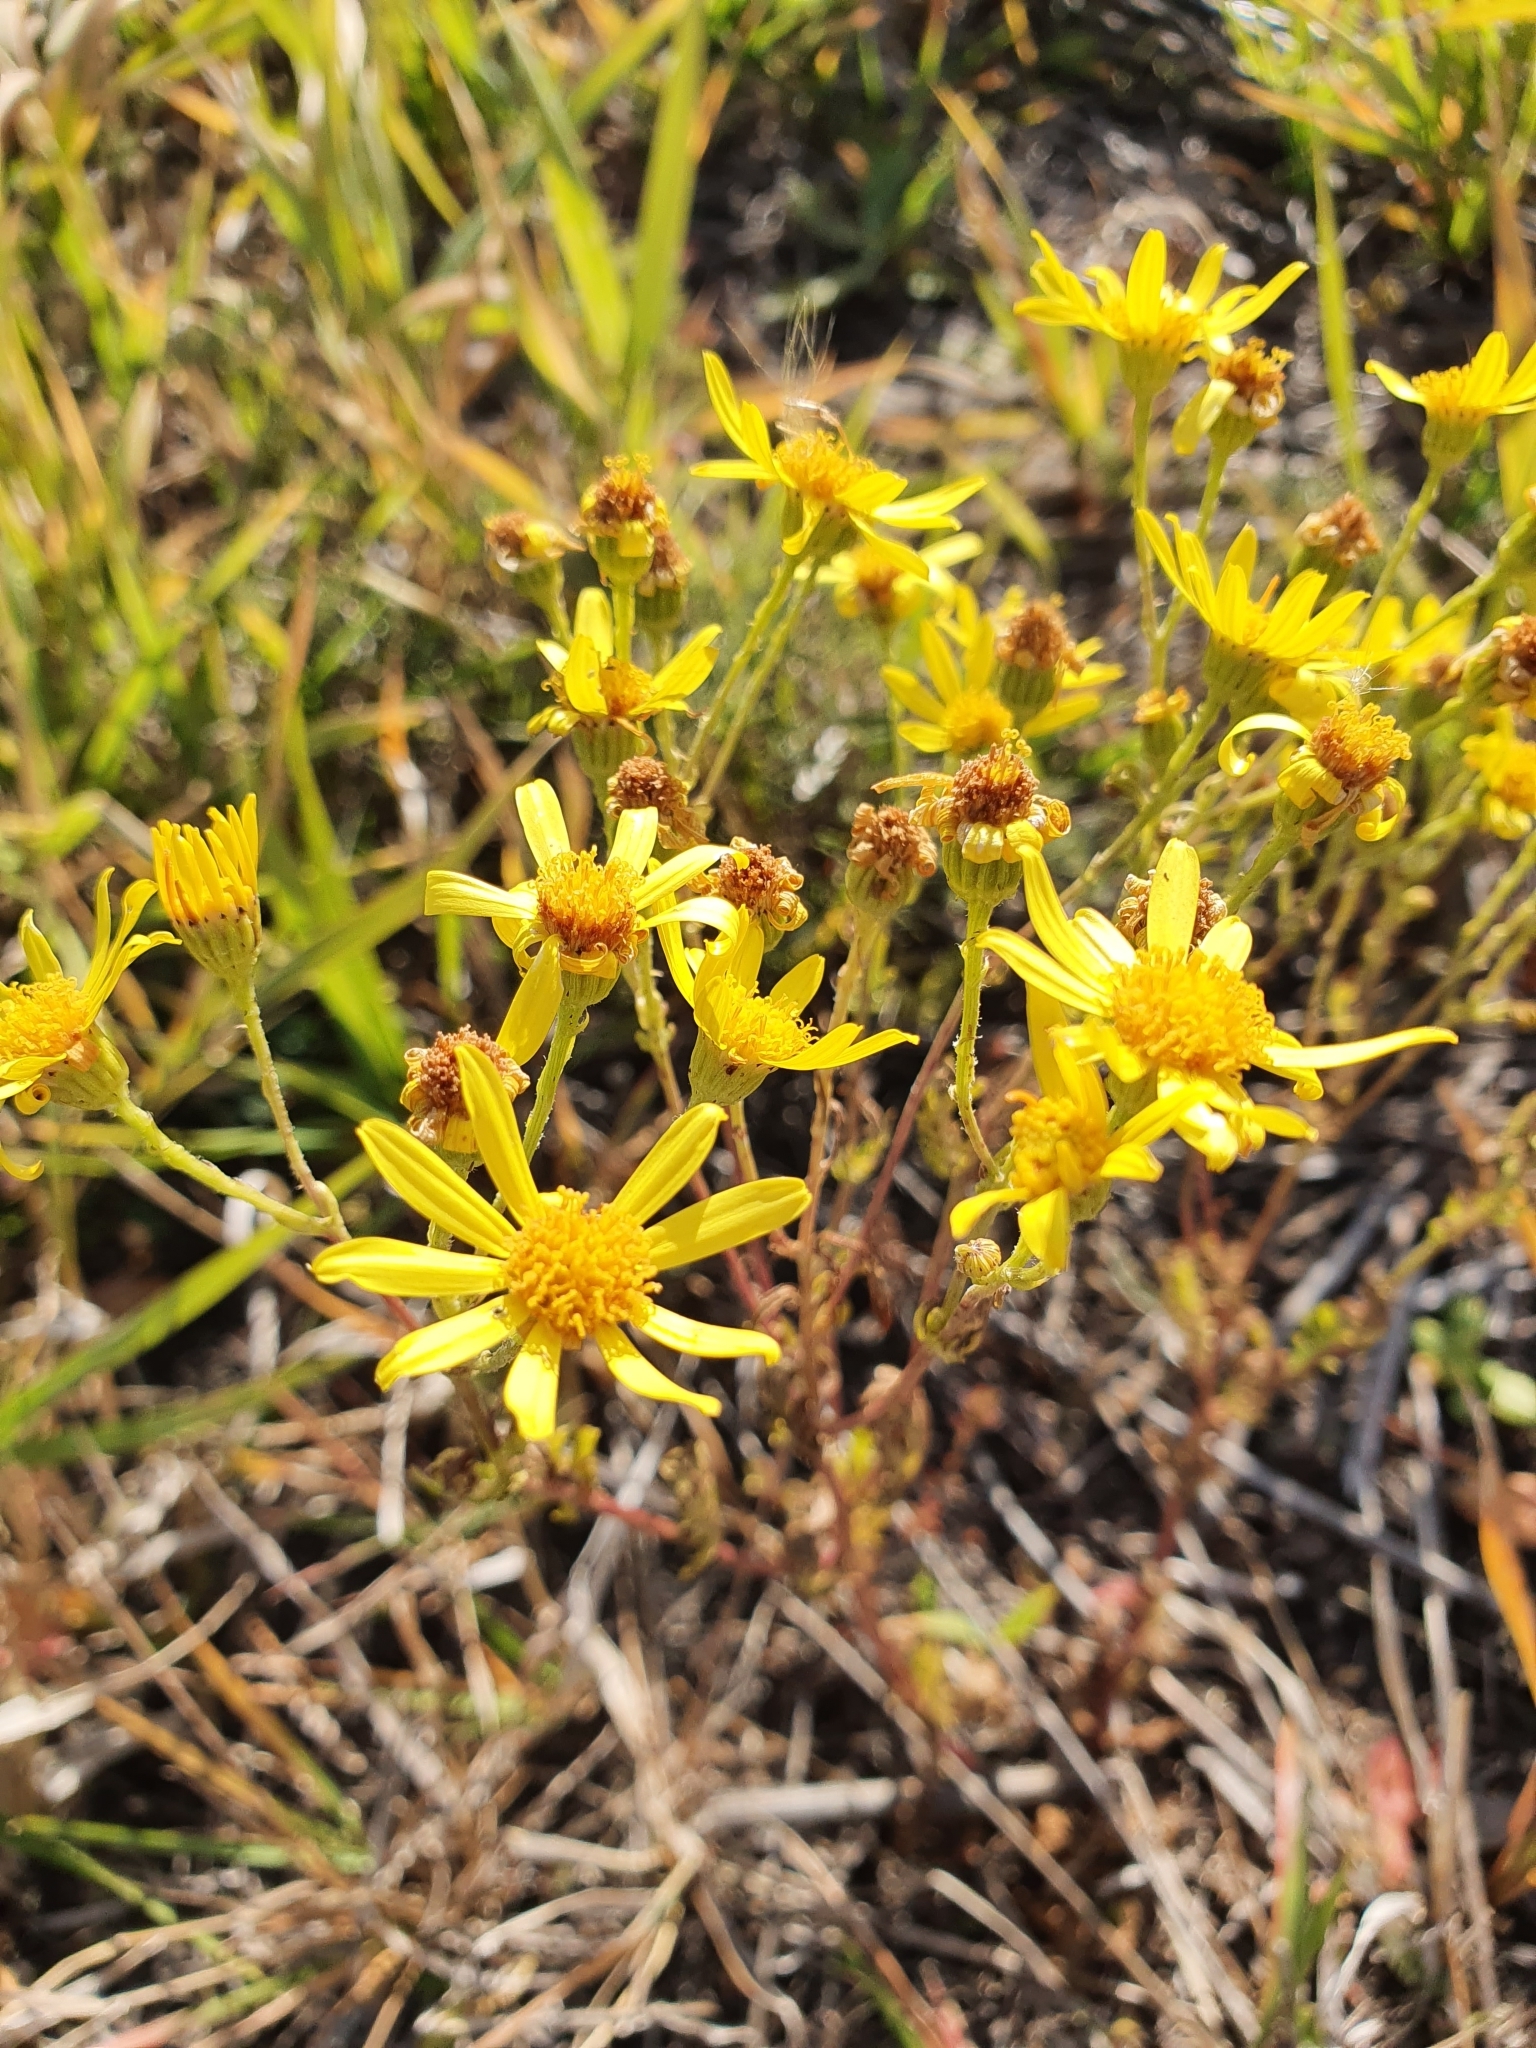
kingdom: Plantae
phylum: Tracheophyta
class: Magnoliopsida
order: Asterales
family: Asteraceae
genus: Jacobaea
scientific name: Jacobaea vulgaris
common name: Stinking willie
